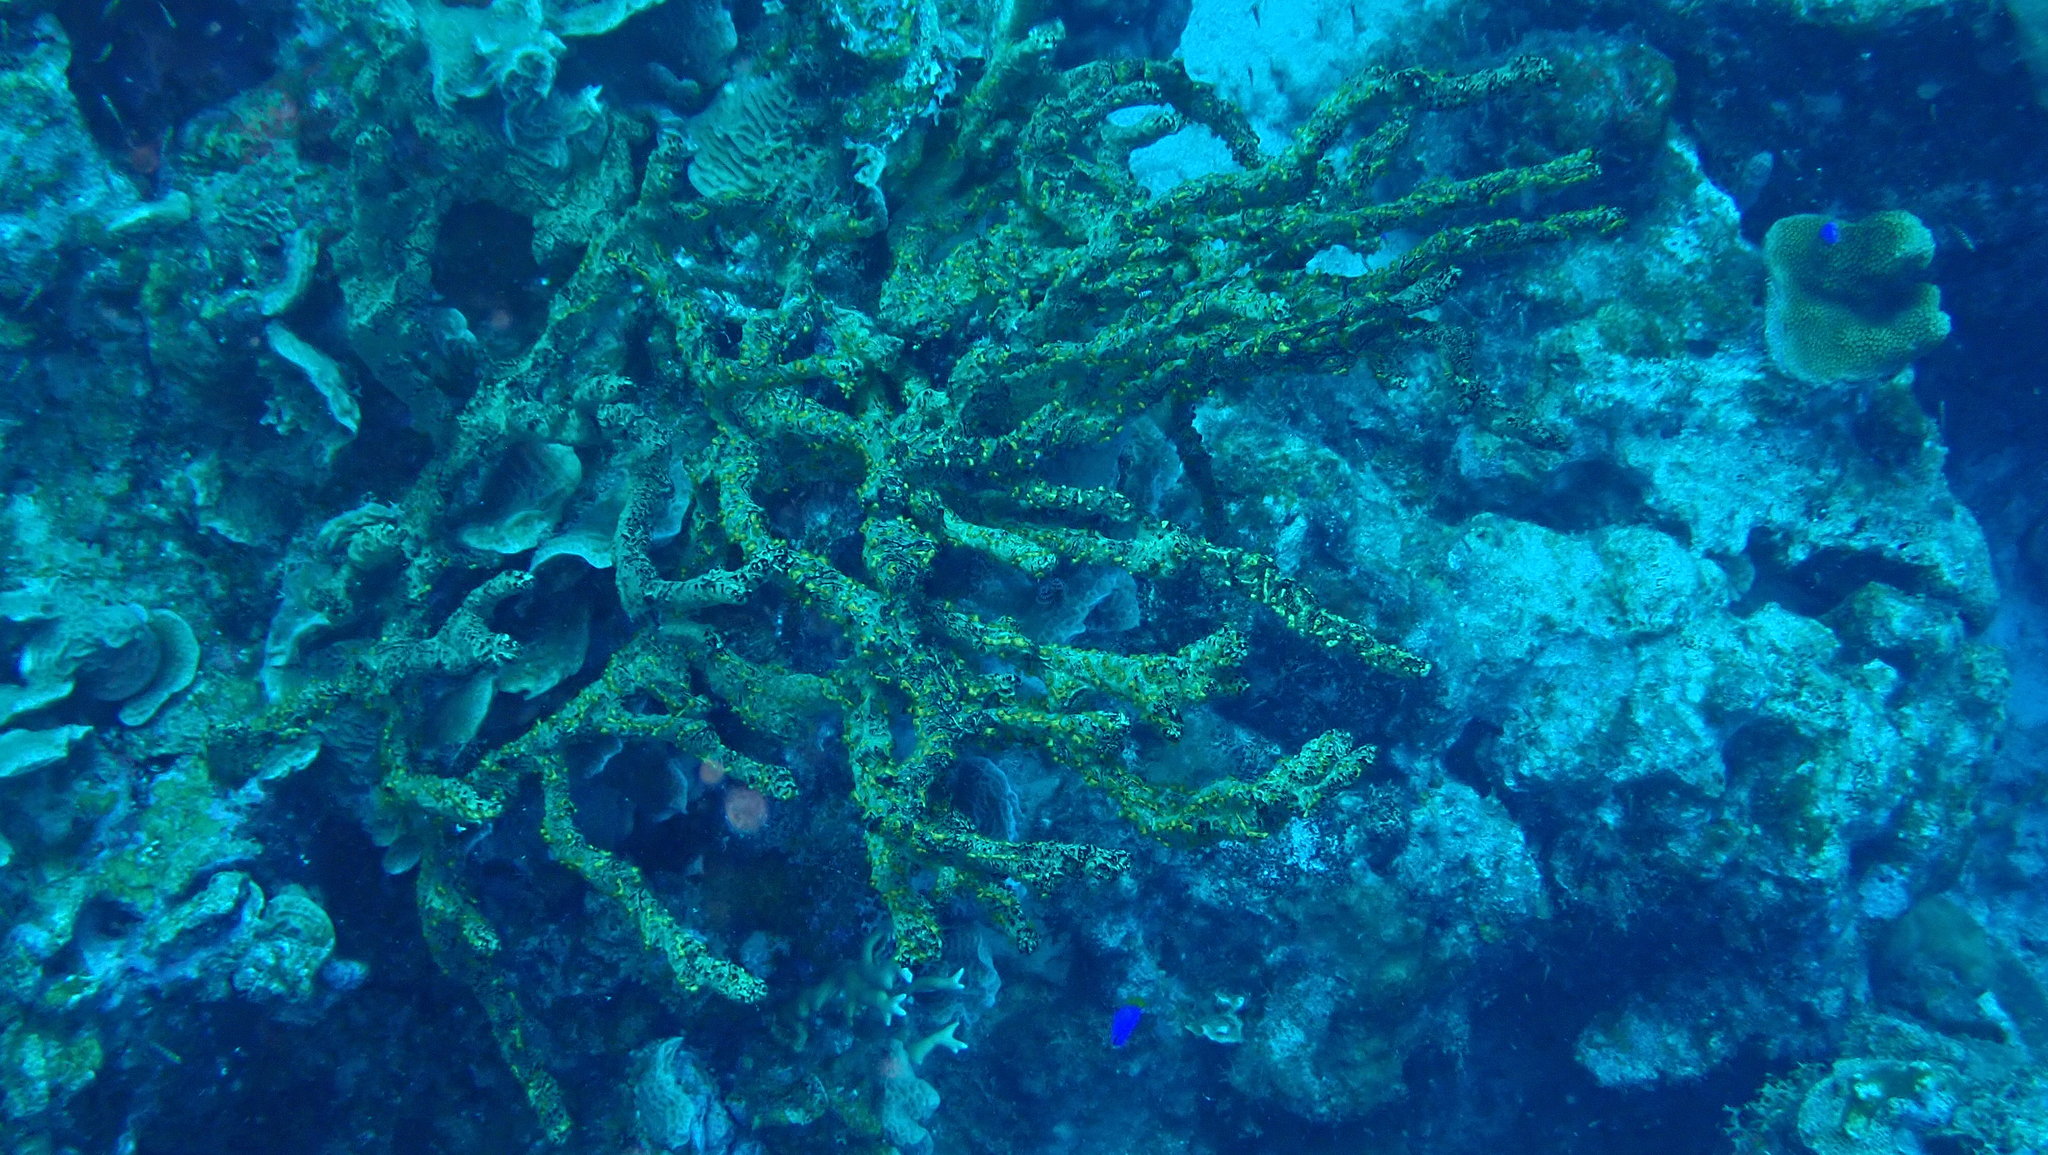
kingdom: Animalia
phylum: Porifera
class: Demospongiae
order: Poecilosclerida
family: Iotrochotidae
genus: Iotrochota
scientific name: Iotrochota birotulata
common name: Purple bleeding sponge
